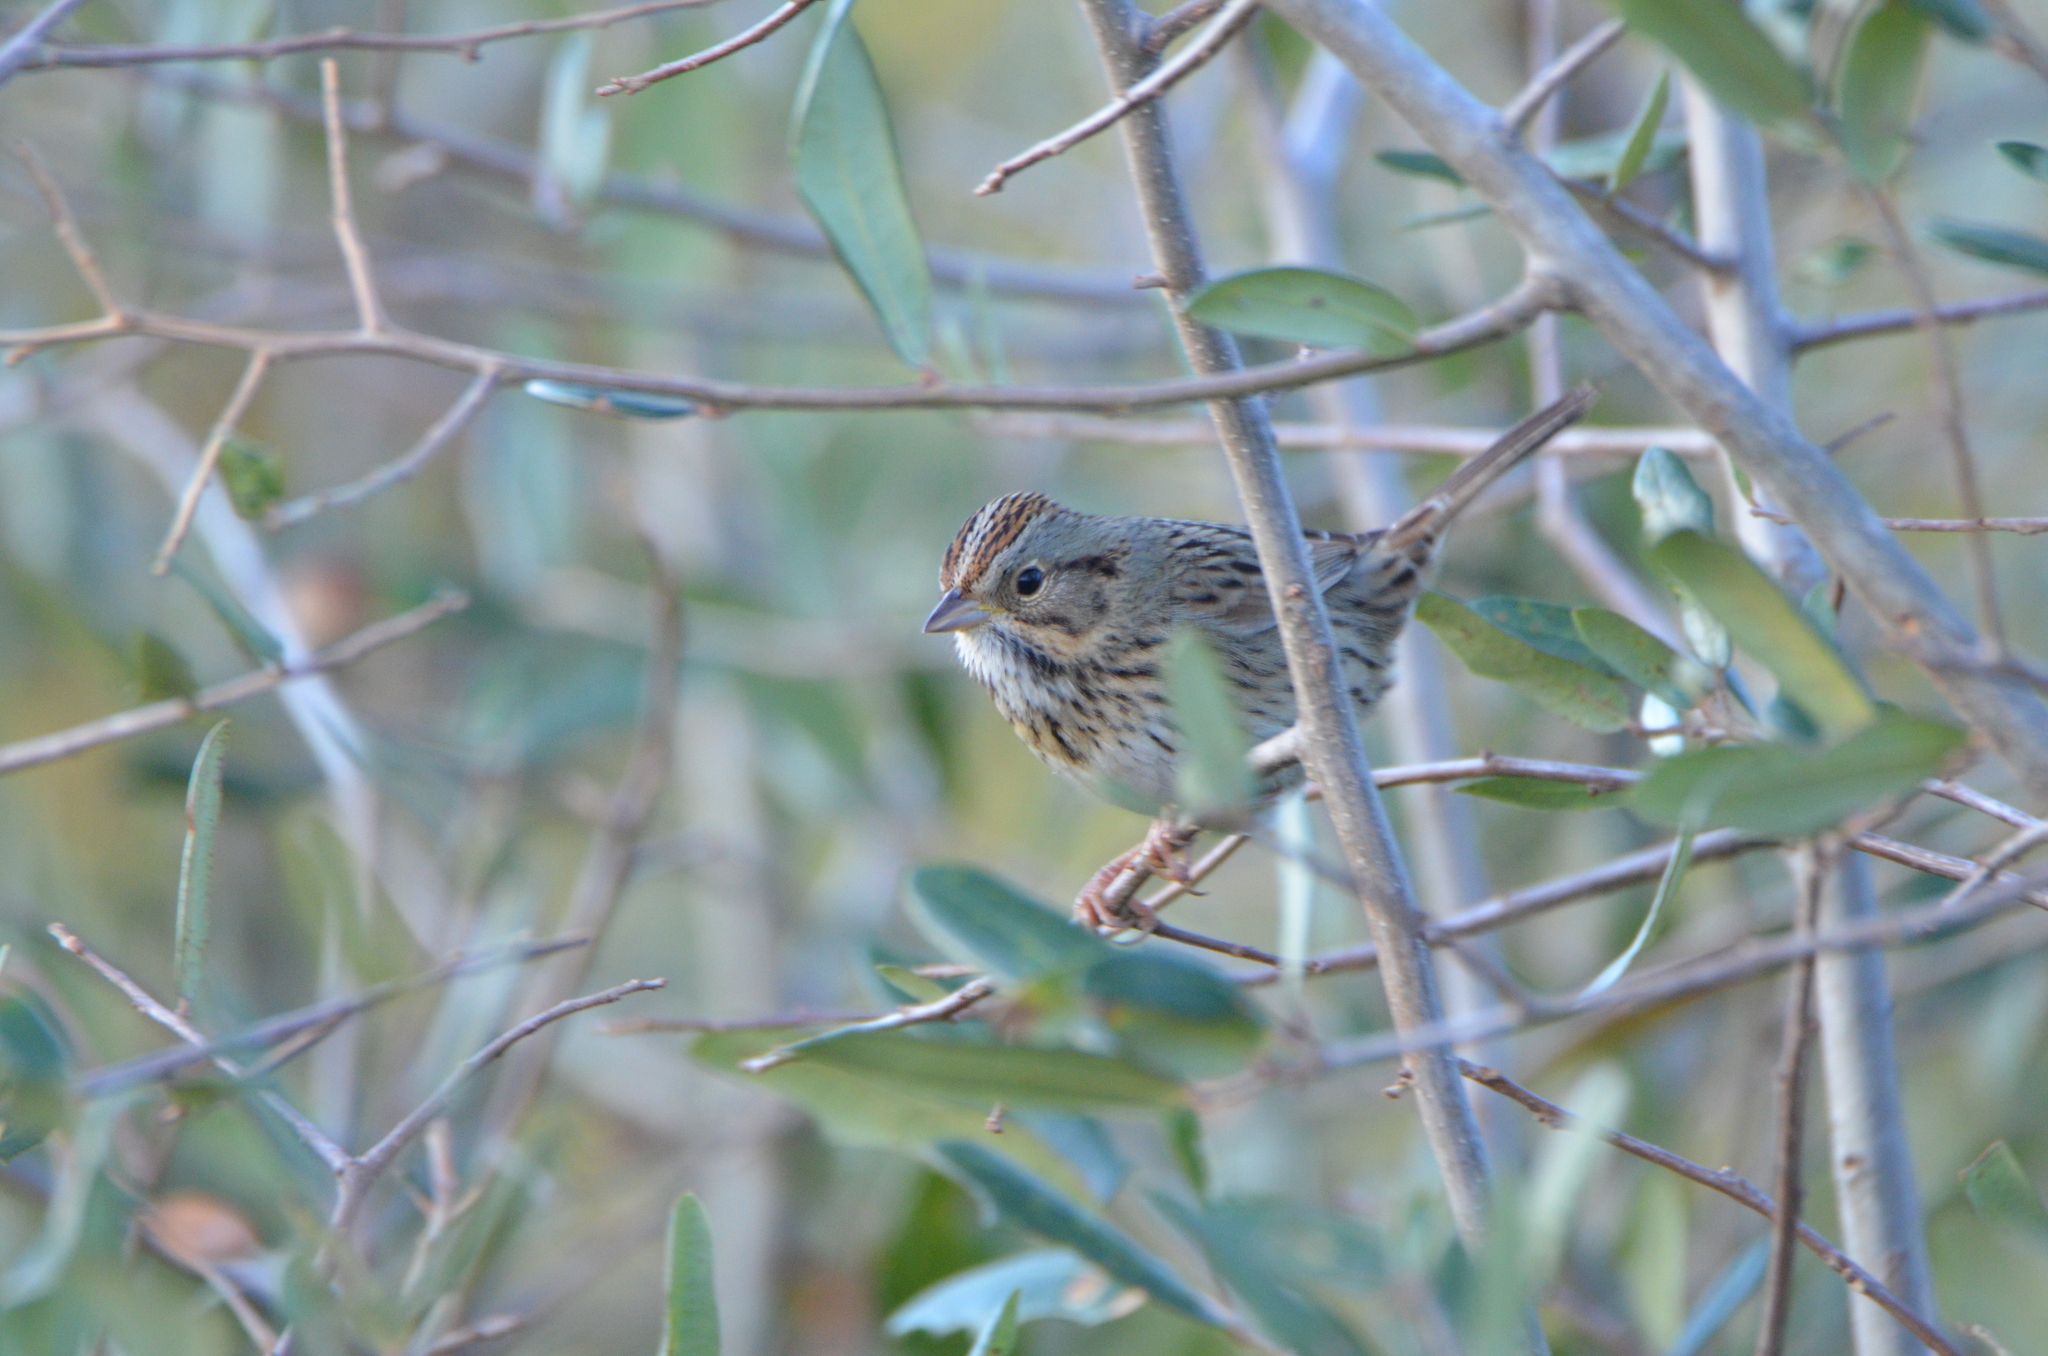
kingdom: Animalia
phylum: Chordata
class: Aves
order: Passeriformes
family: Passerellidae
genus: Melospiza
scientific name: Melospiza lincolnii
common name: Lincoln's sparrow
